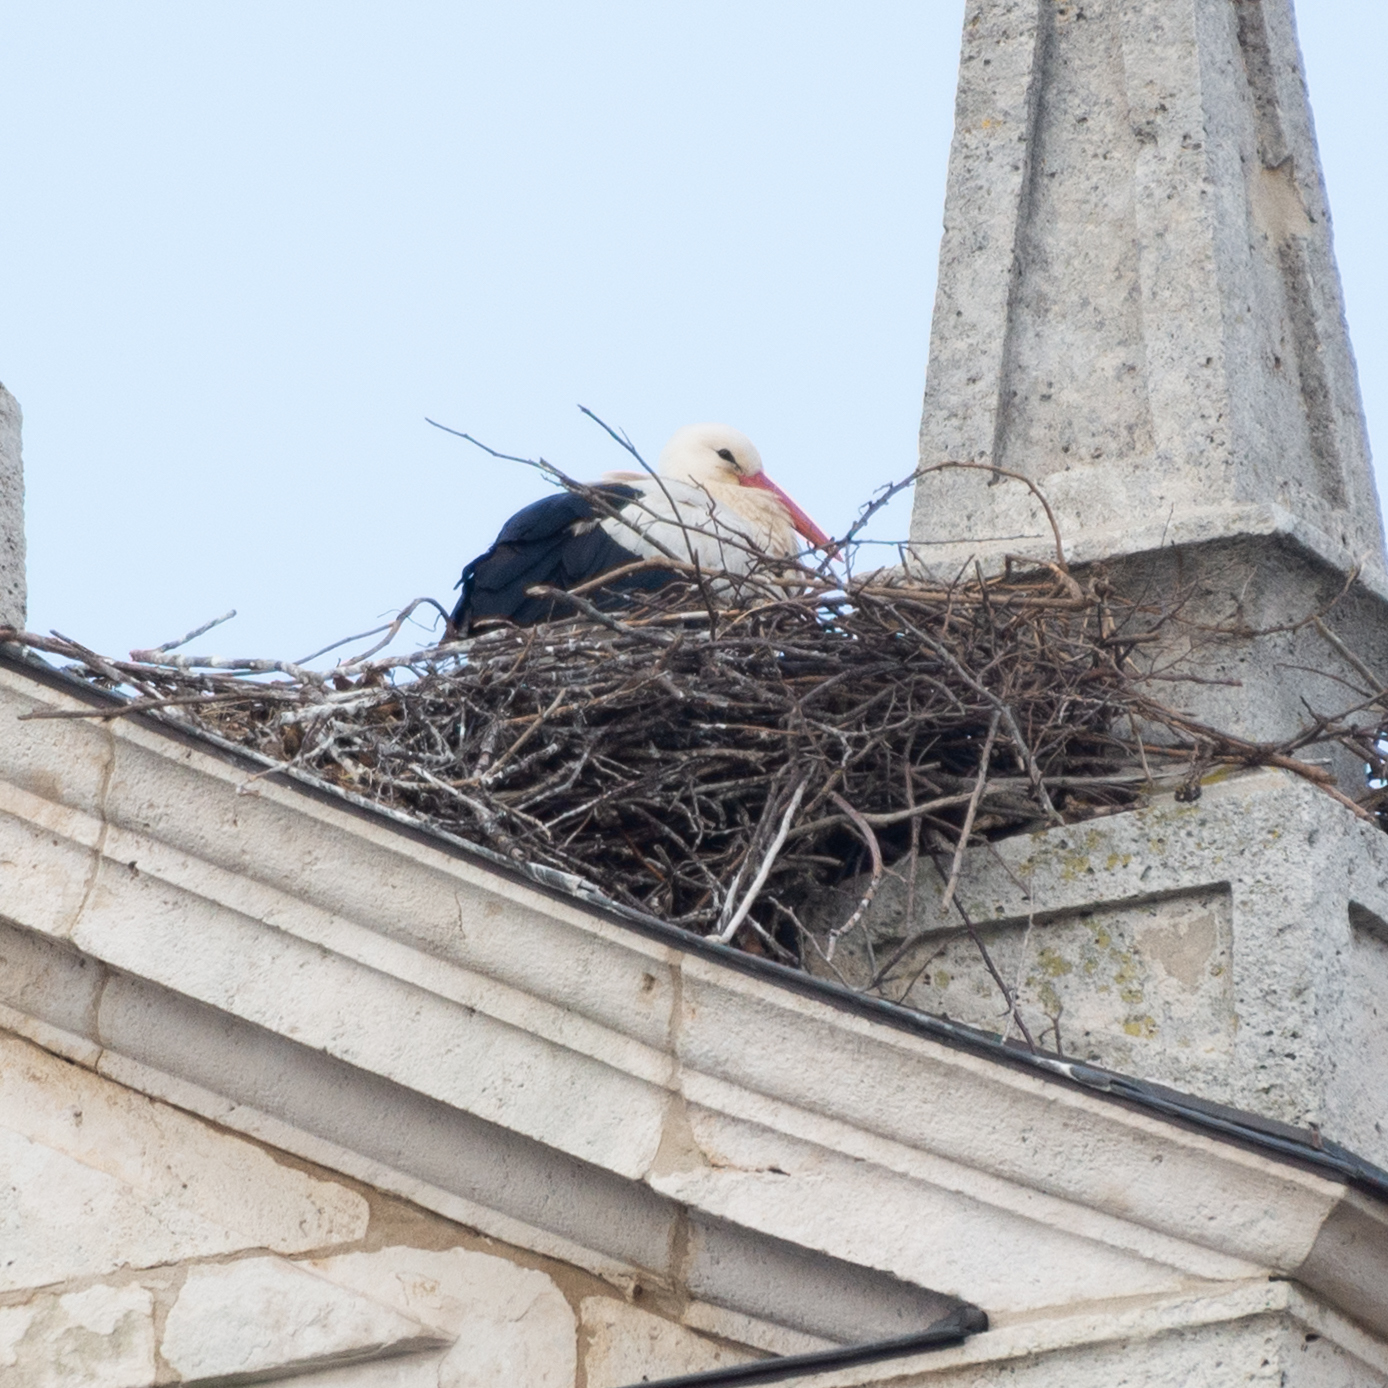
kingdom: Animalia
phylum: Chordata
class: Aves
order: Ciconiiformes
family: Ciconiidae
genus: Ciconia
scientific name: Ciconia ciconia
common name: White stork
